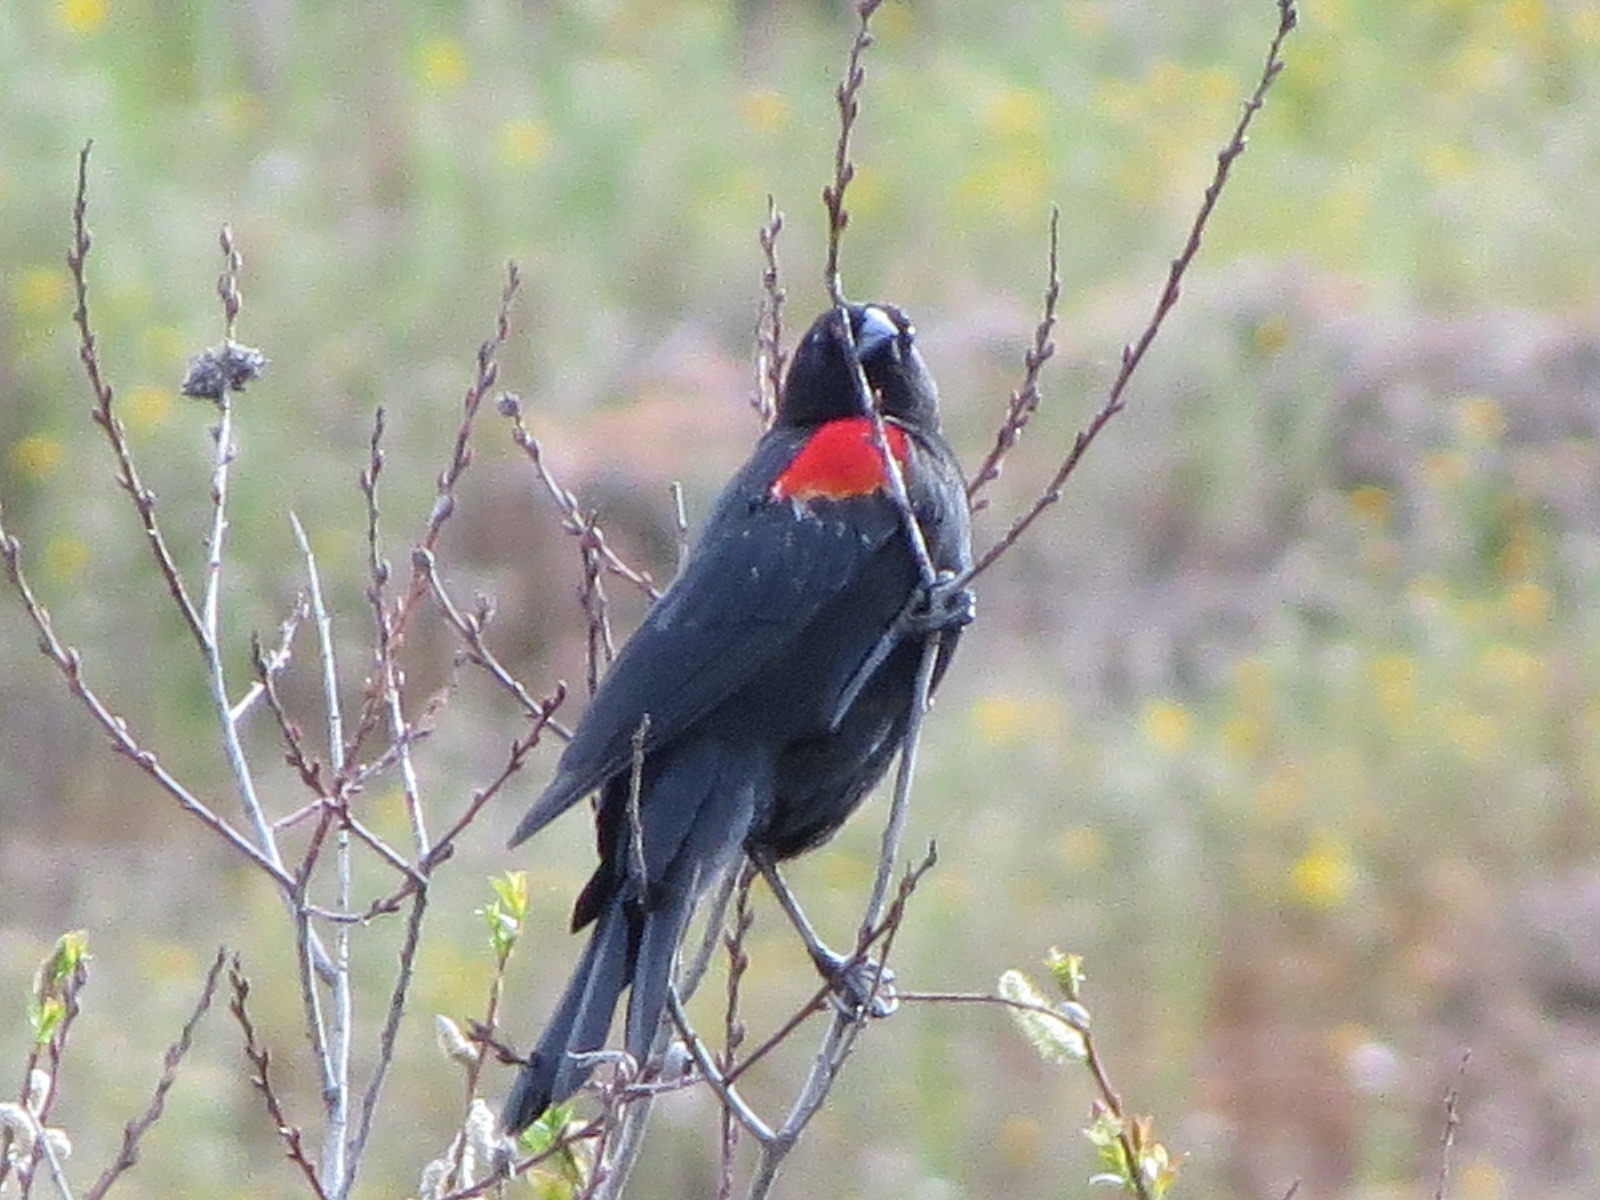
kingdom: Animalia
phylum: Chordata
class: Aves
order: Passeriformes
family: Icteridae
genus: Agelaius
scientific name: Agelaius phoeniceus
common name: Red-winged blackbird
